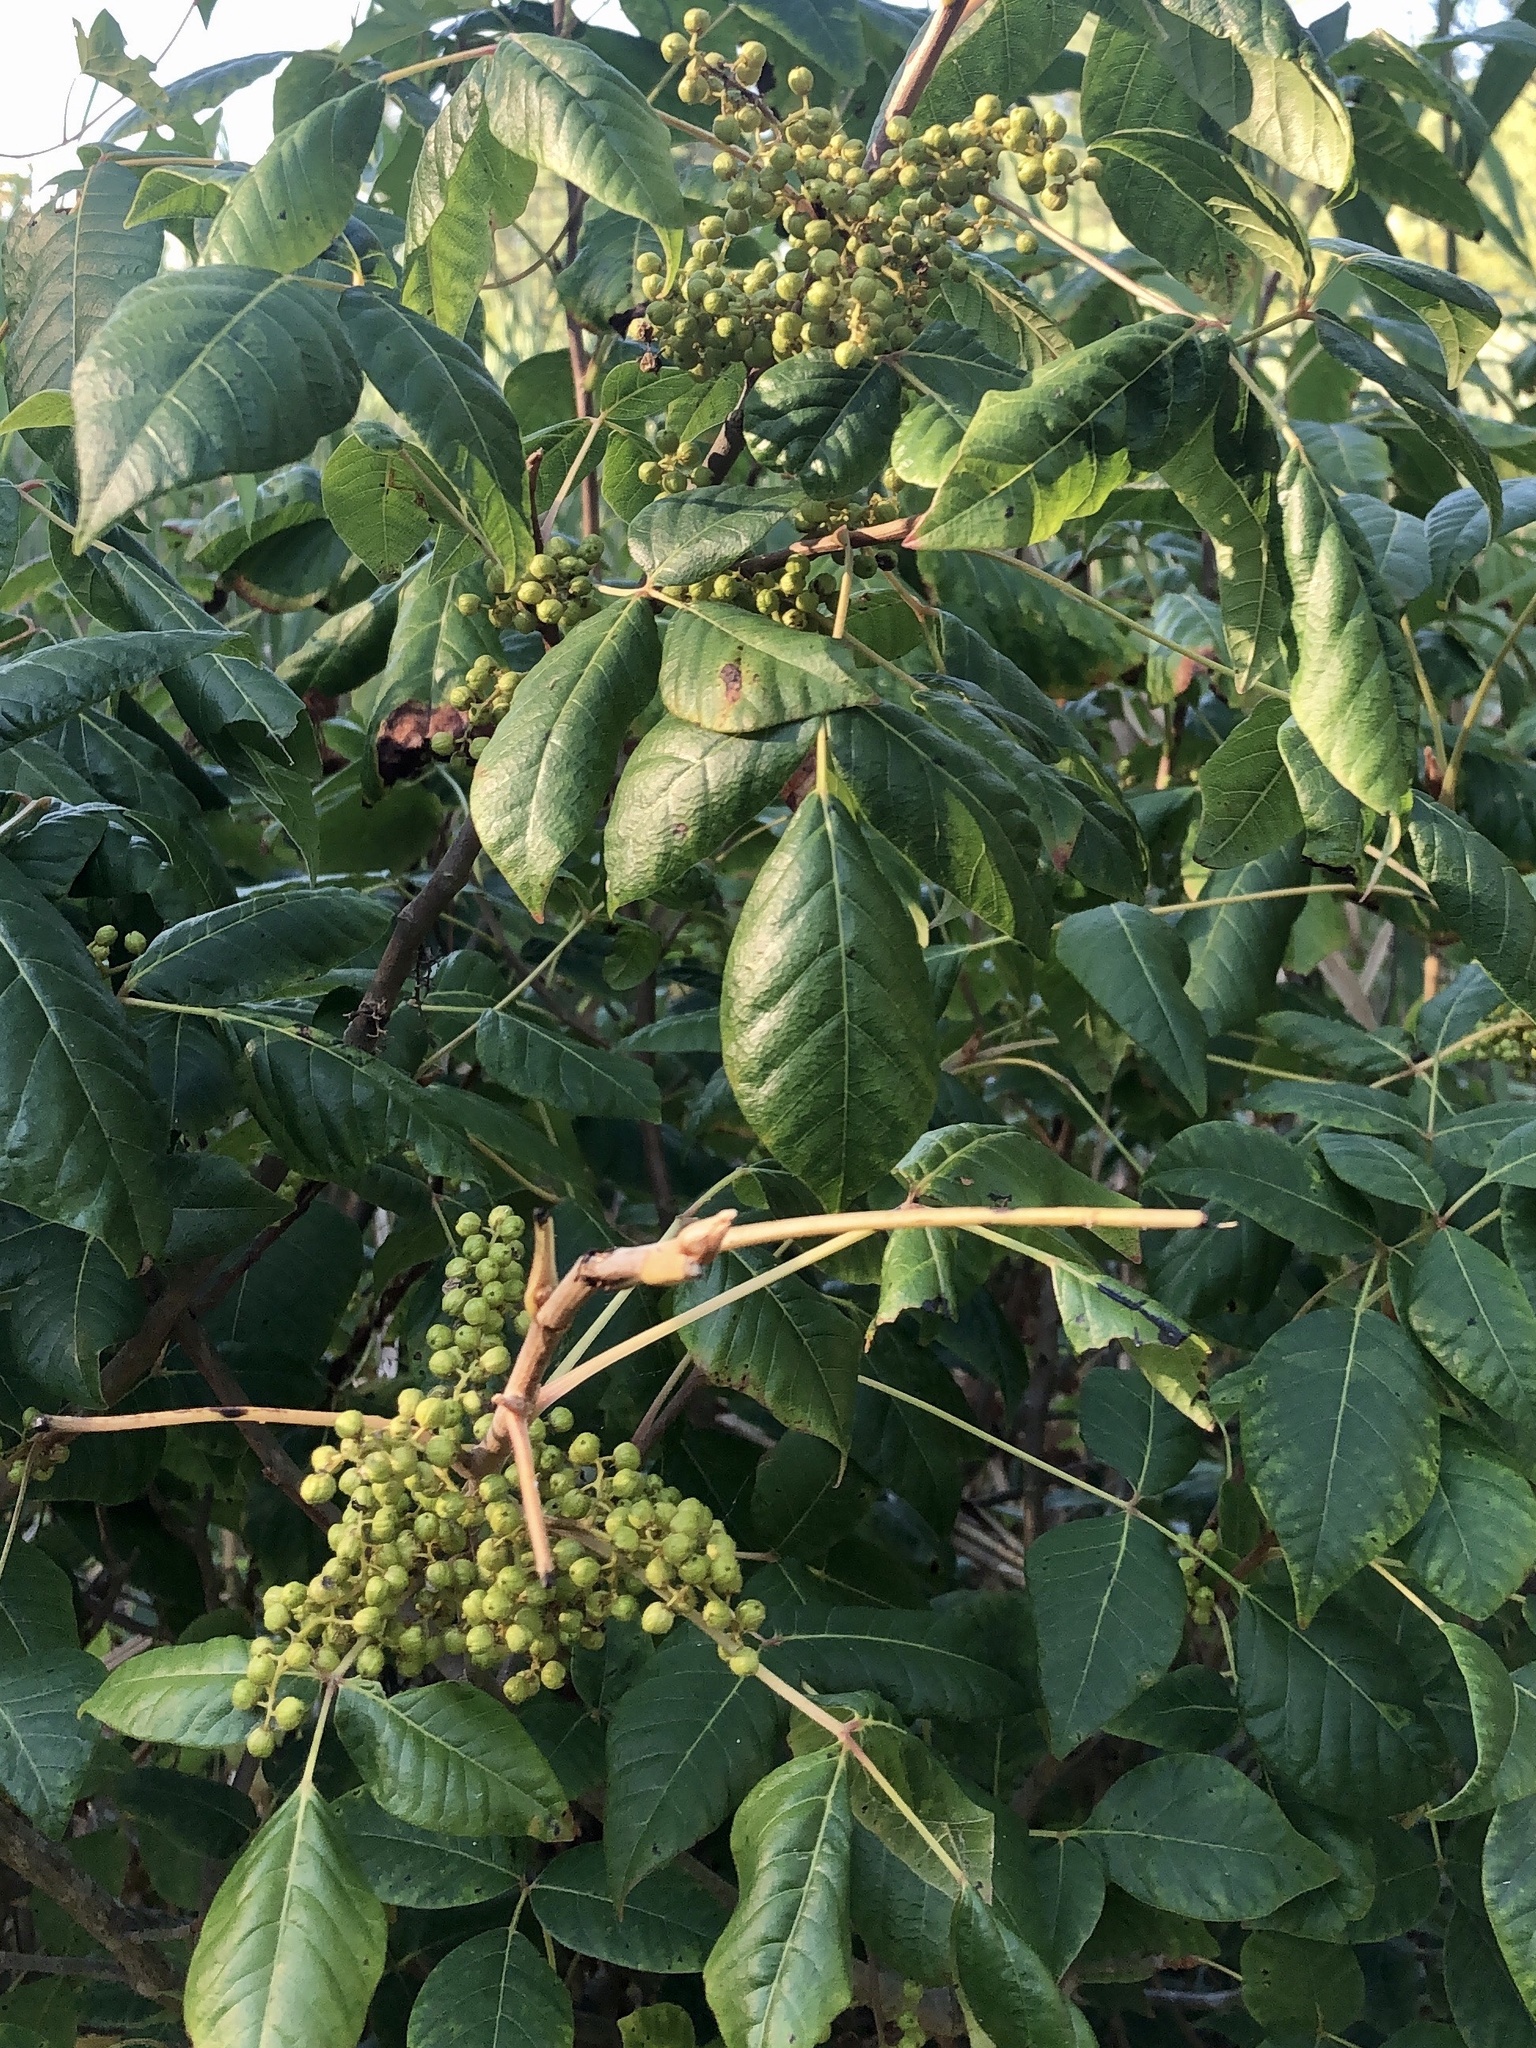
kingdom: Plantae
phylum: Tracheophyta
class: Magnoliopsida
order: Sapindales
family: Anacardiaceae
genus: Toxicodendron
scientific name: Toxicodendron radicans
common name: Poison ivy
